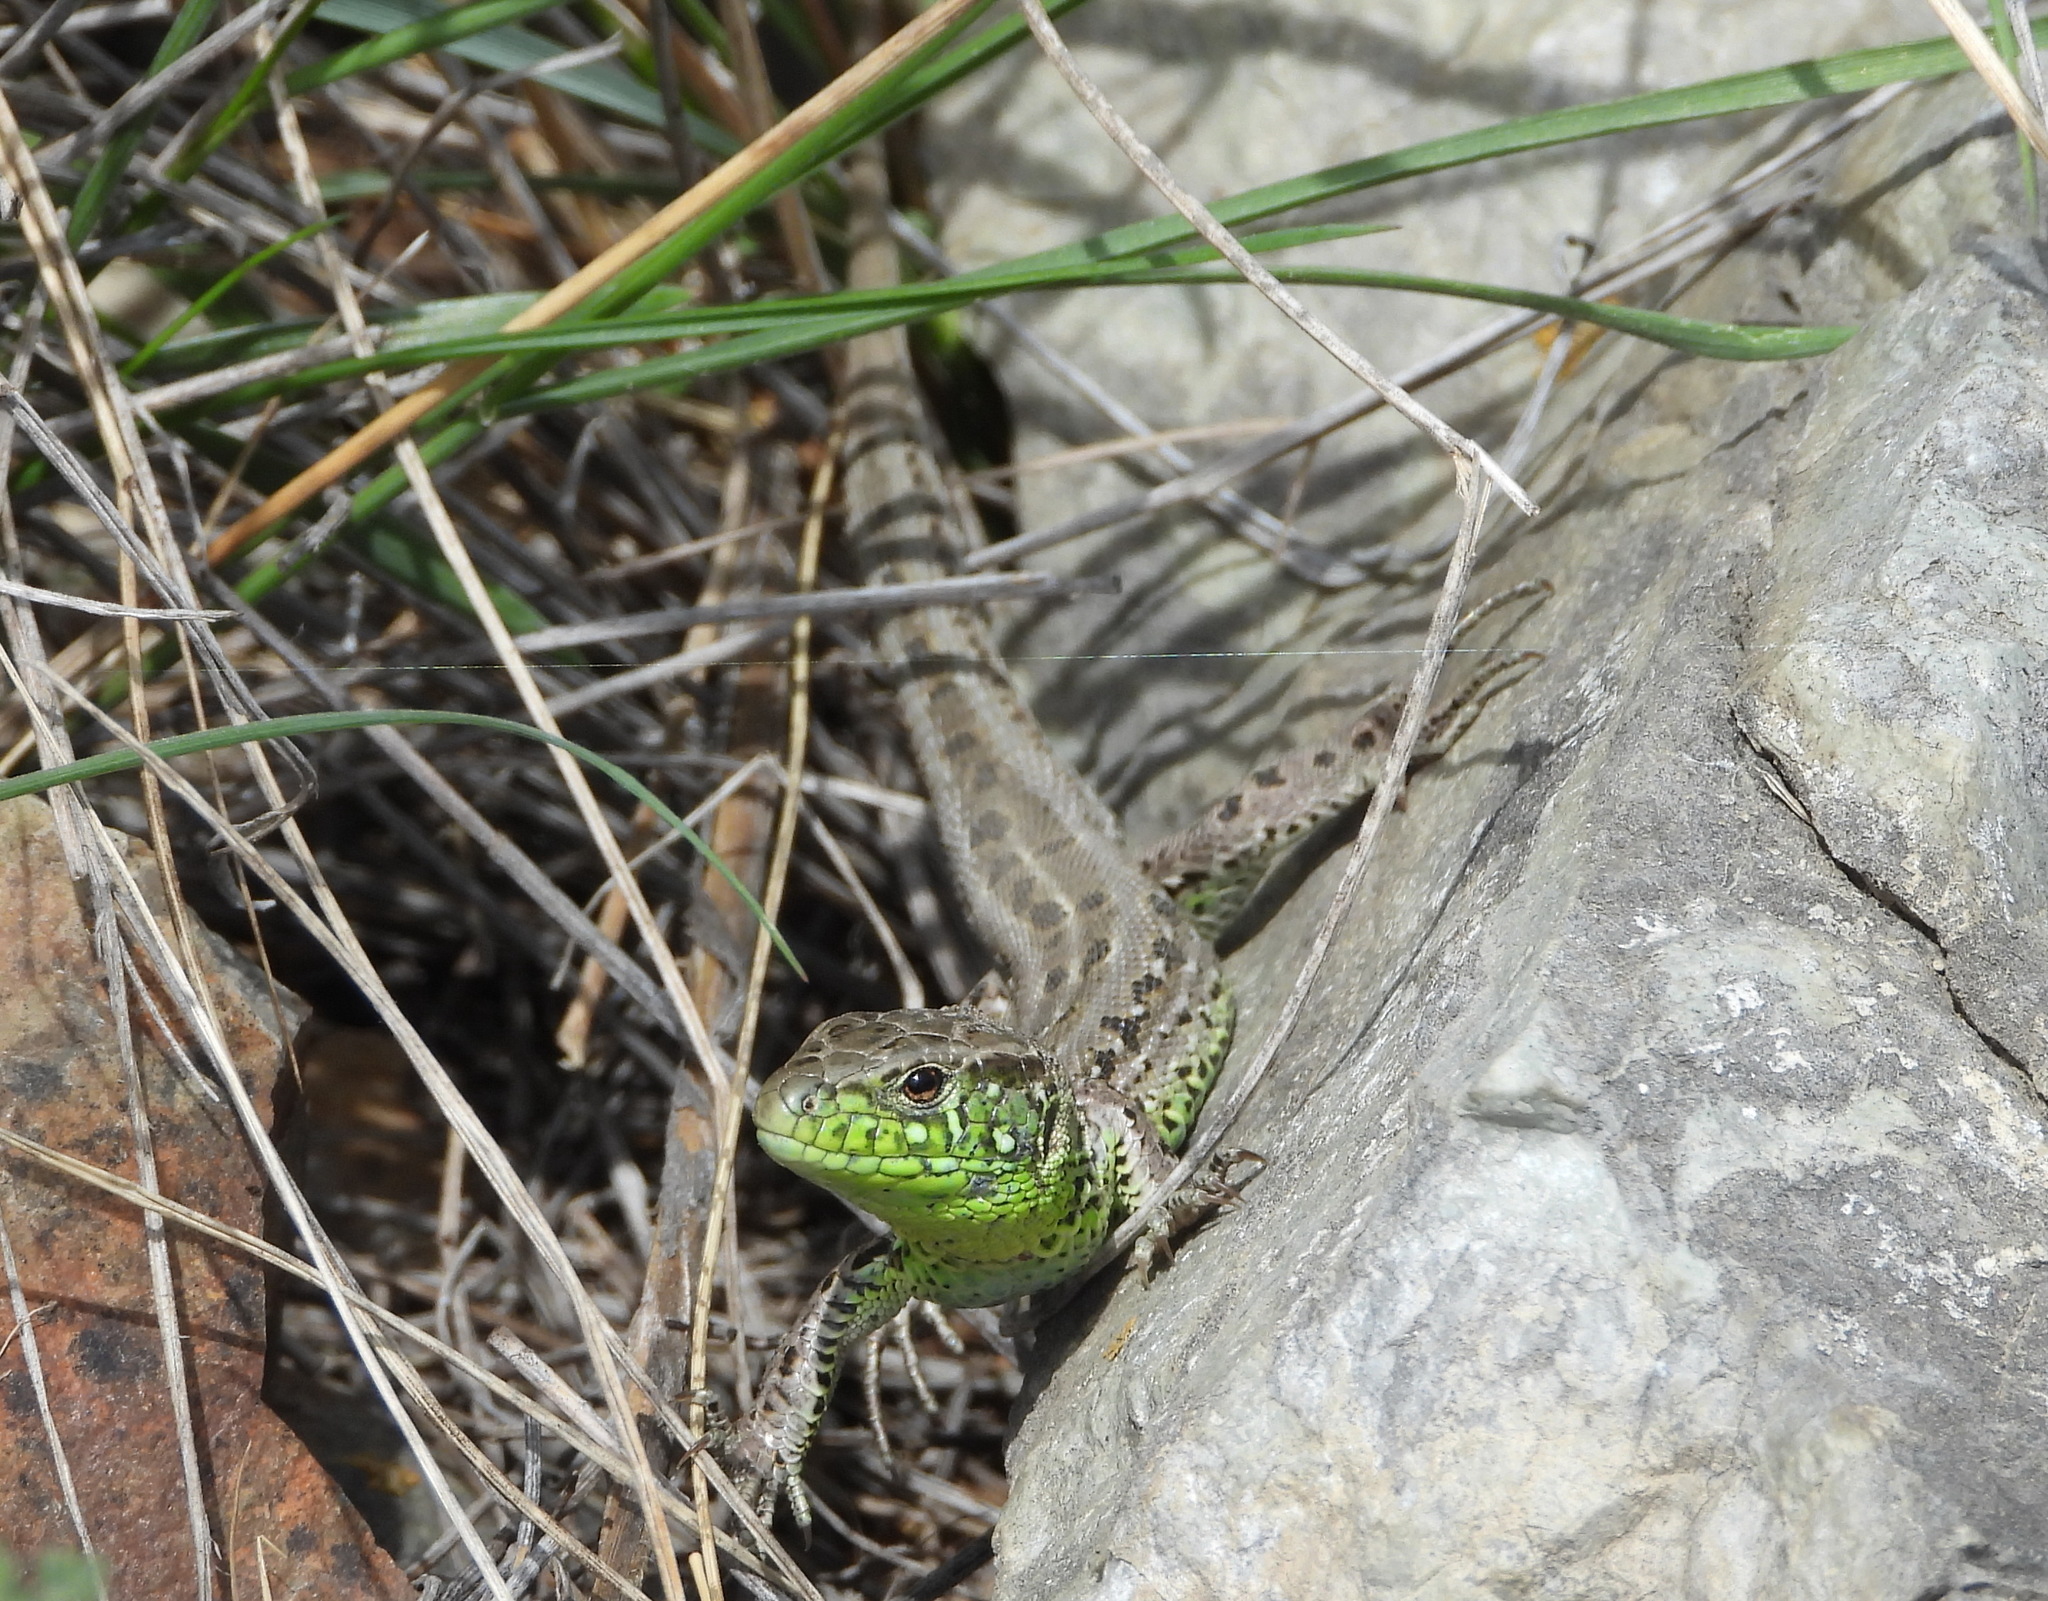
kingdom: Animalia
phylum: Chordata
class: Squamata
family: Lacertidae
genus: Lacerta
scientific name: Lacerta agilis
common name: Sand lizard
